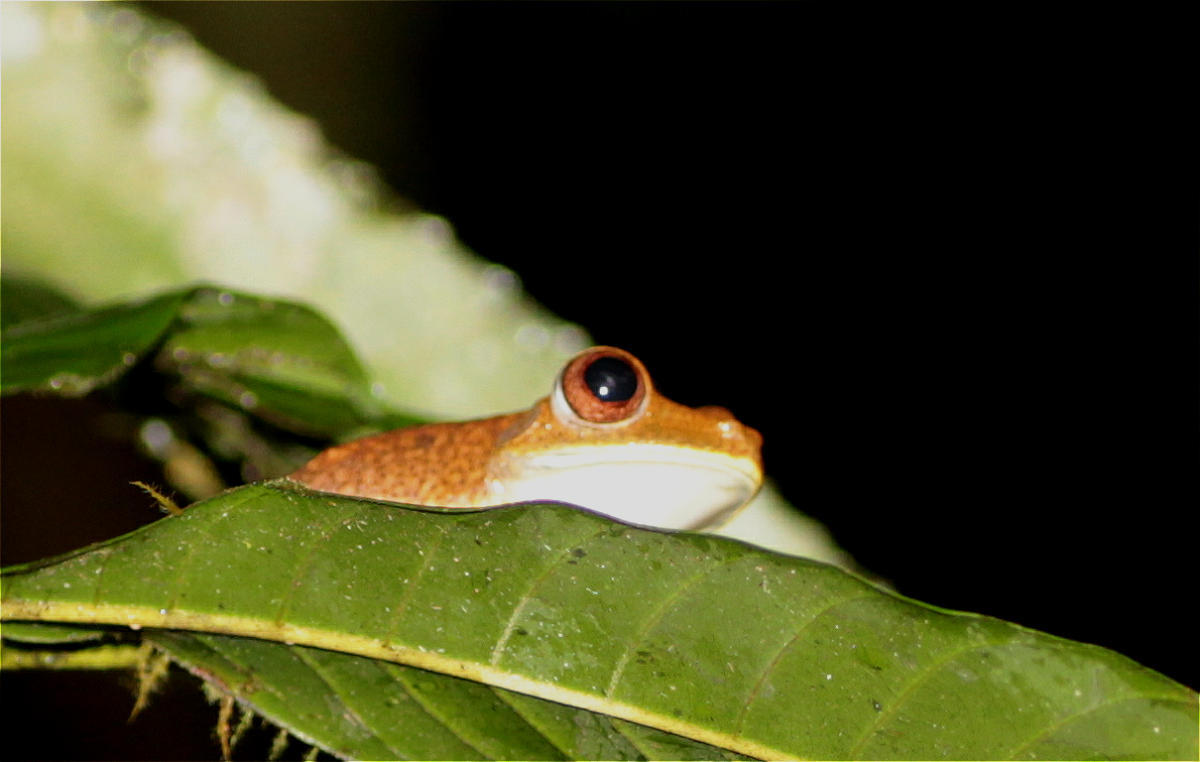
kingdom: Animalia
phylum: Chordata
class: Amphibia
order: Anura
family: Hylidae
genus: Boana
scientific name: Boana appendiculata
